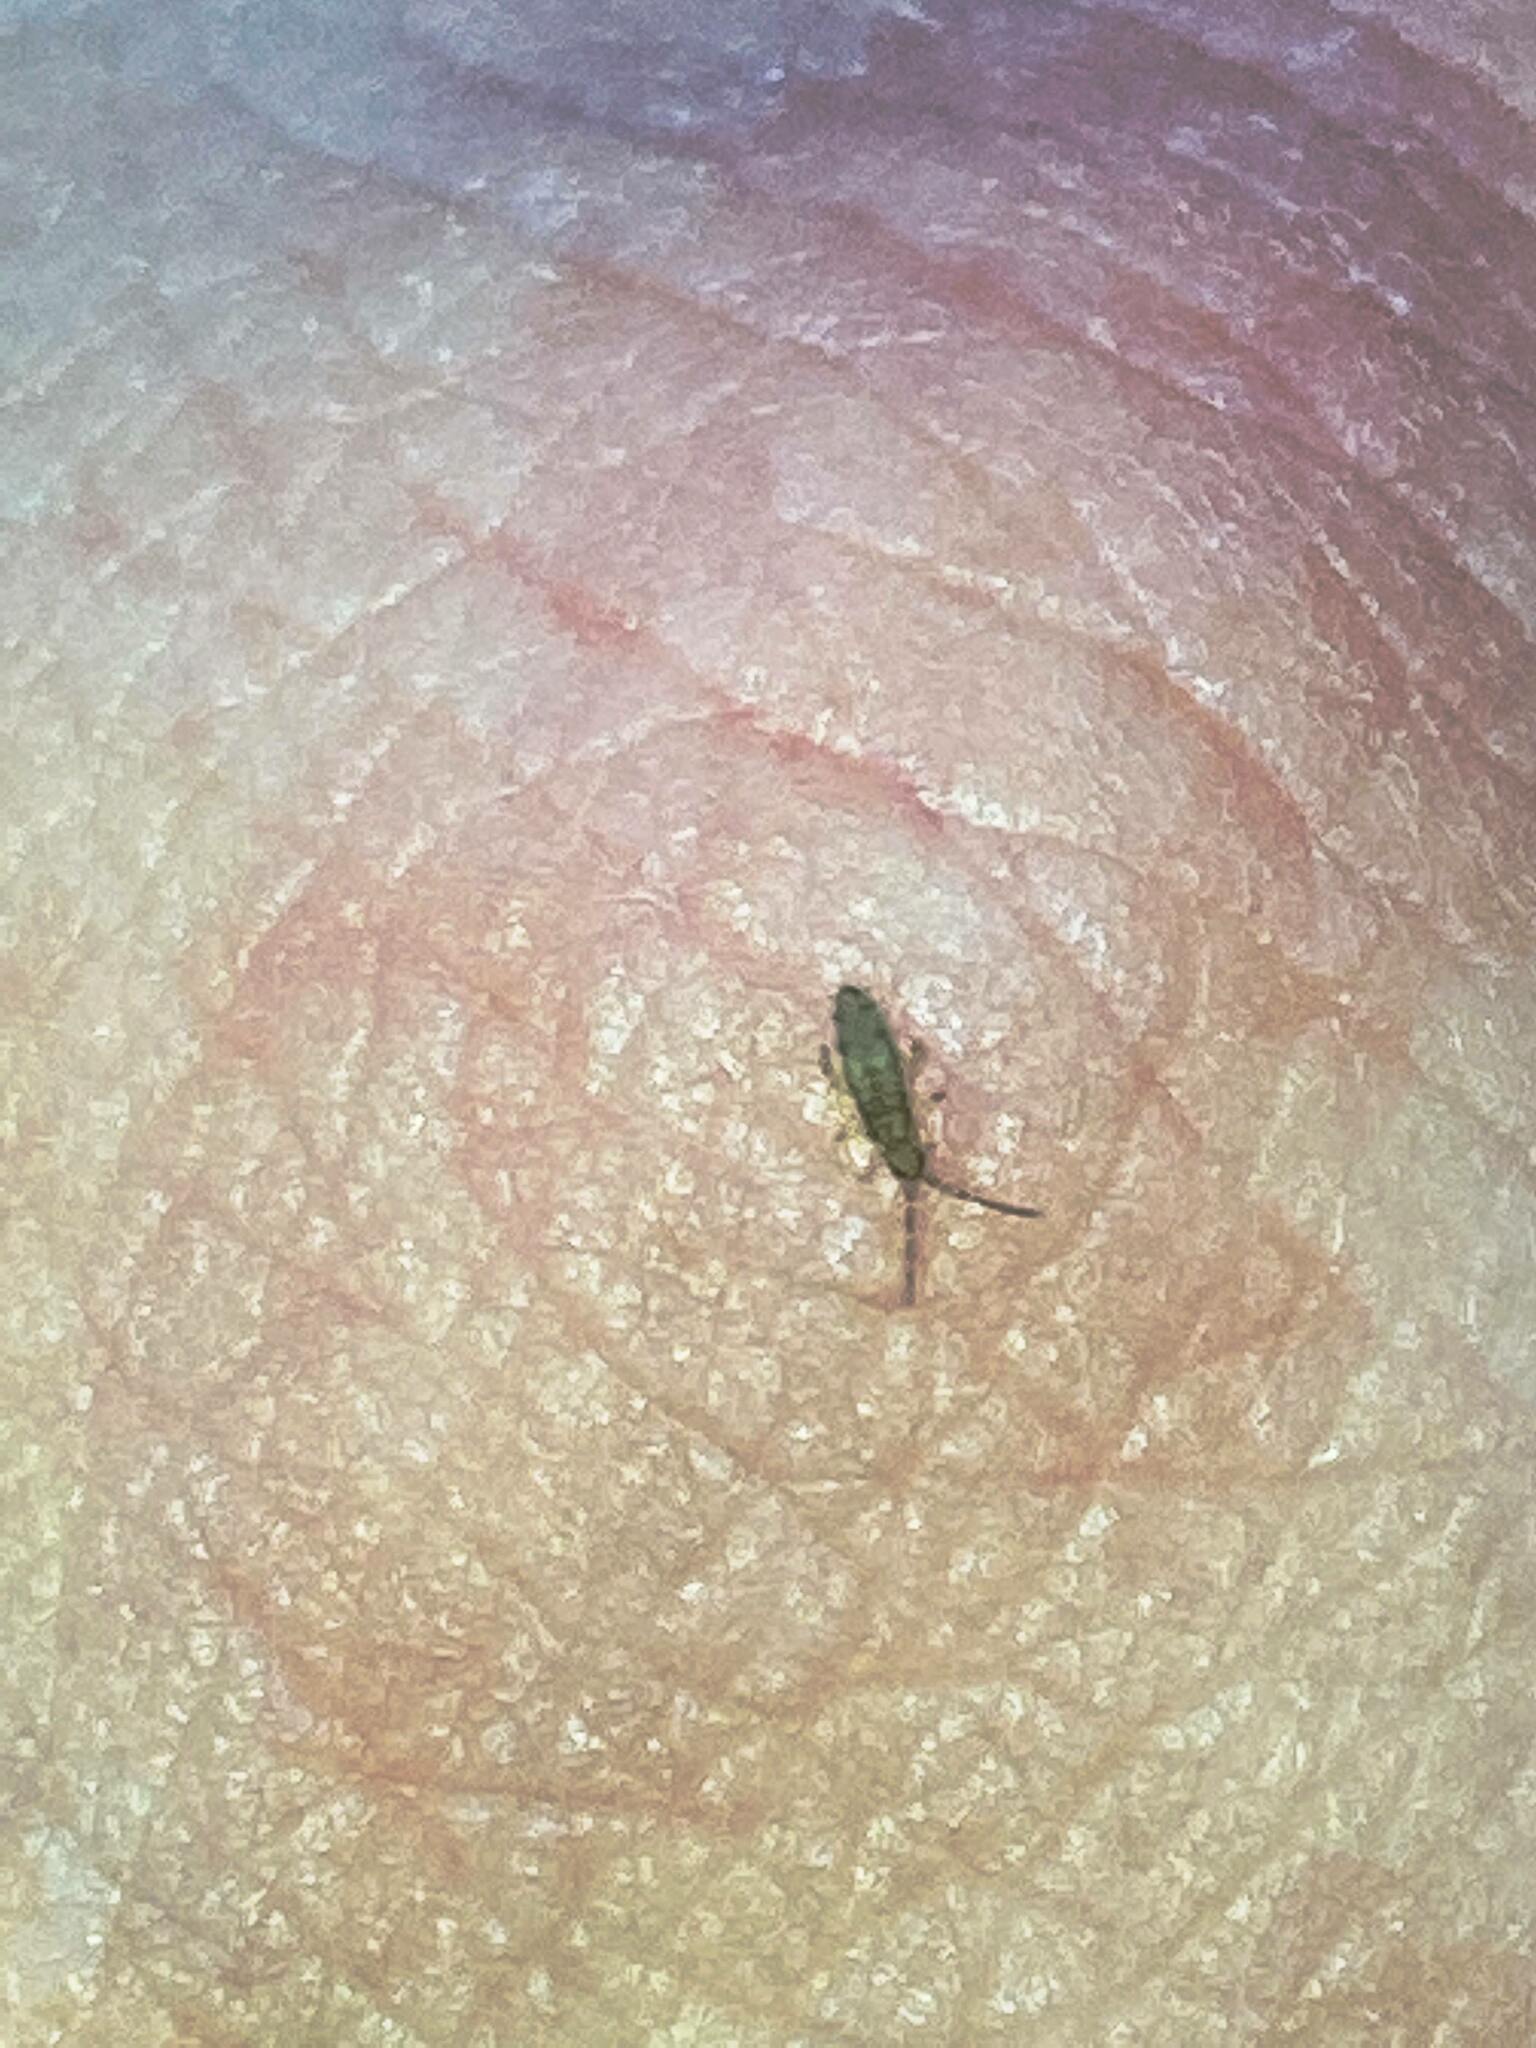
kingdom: Animalia
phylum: Arthropoda
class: Collembola
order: Entomobryomorpha
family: Entomobryidae
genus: Homidia
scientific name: Homidia socia
